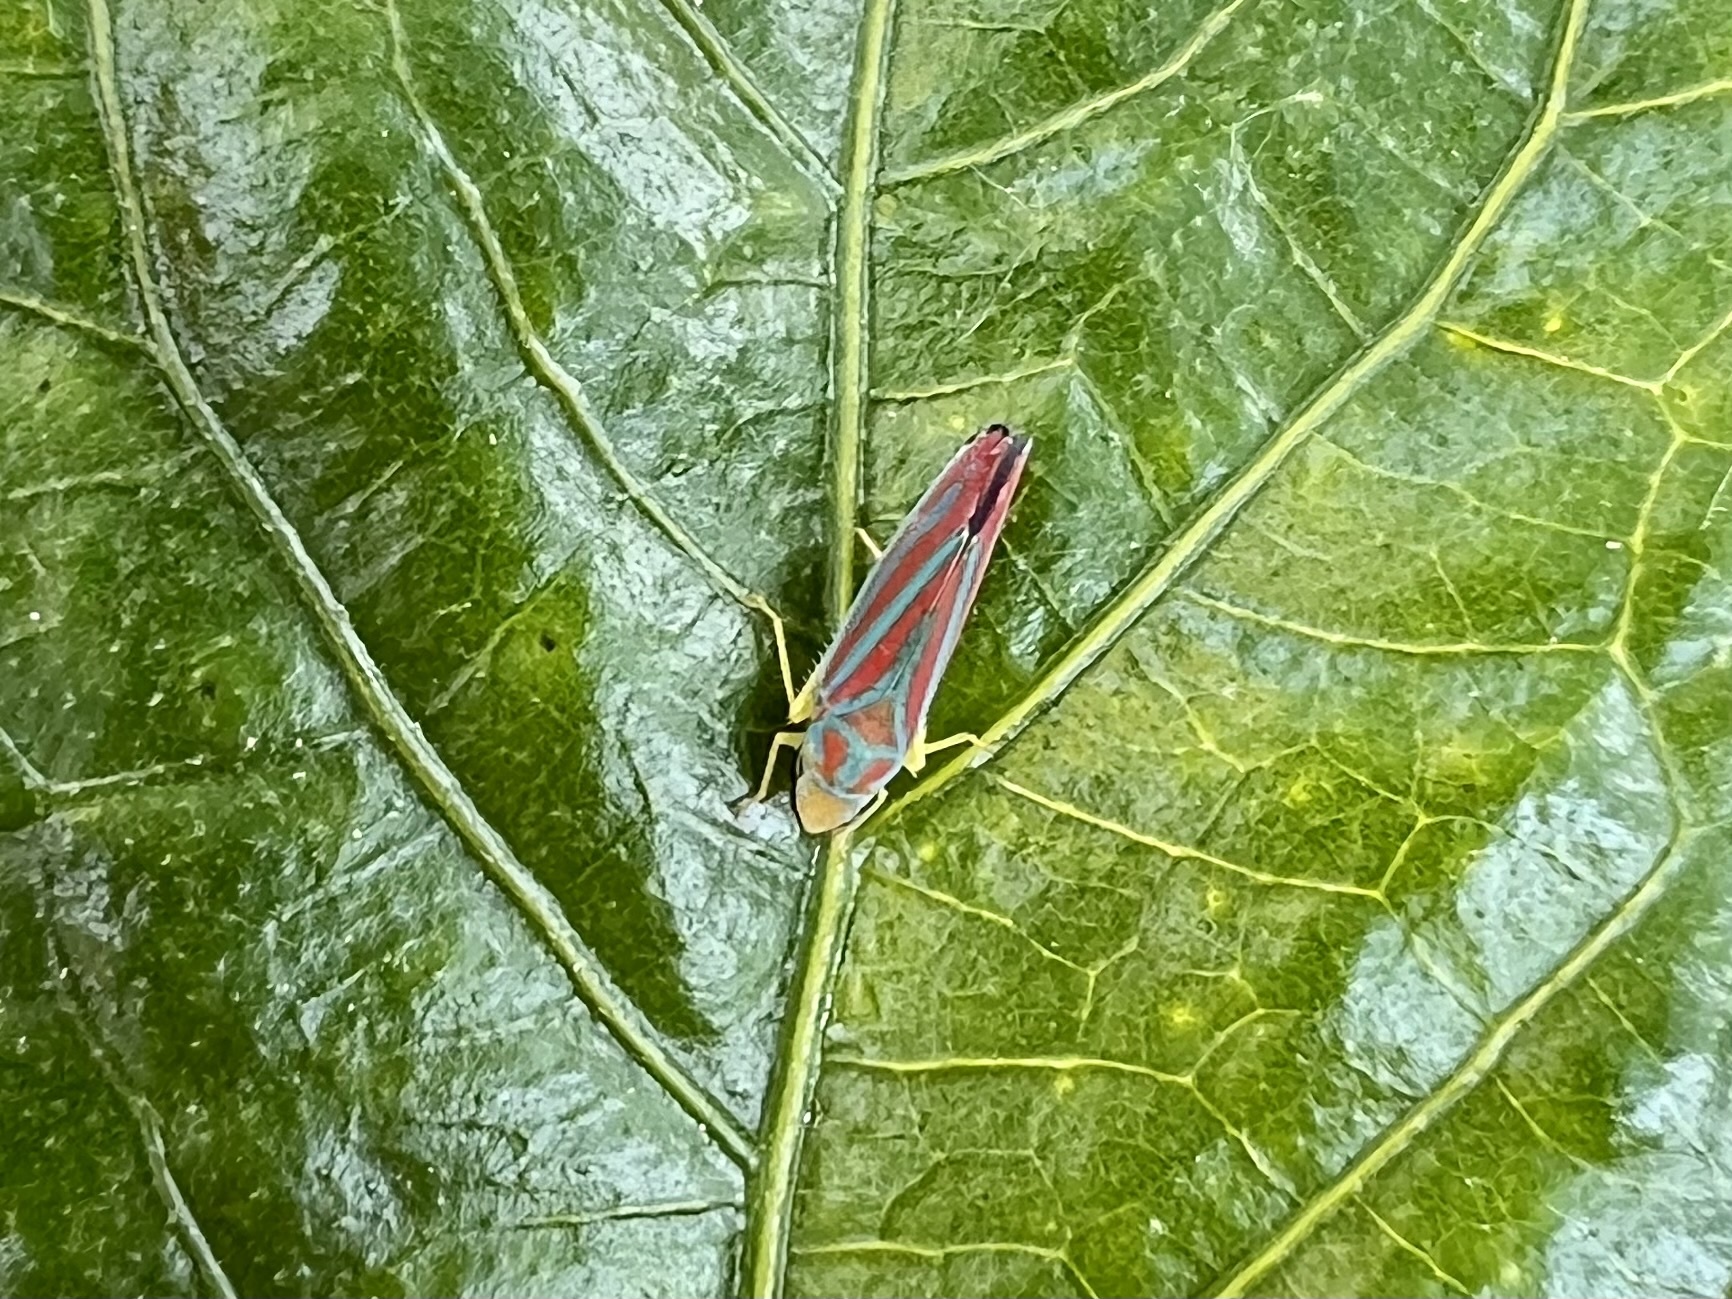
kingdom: Animalia
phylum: Arthropoda
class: Insecta
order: Hemiptera
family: Cicadellidae
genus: Graphocephala
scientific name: Graphocephala coccinea
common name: Candy-striped leafhopper
